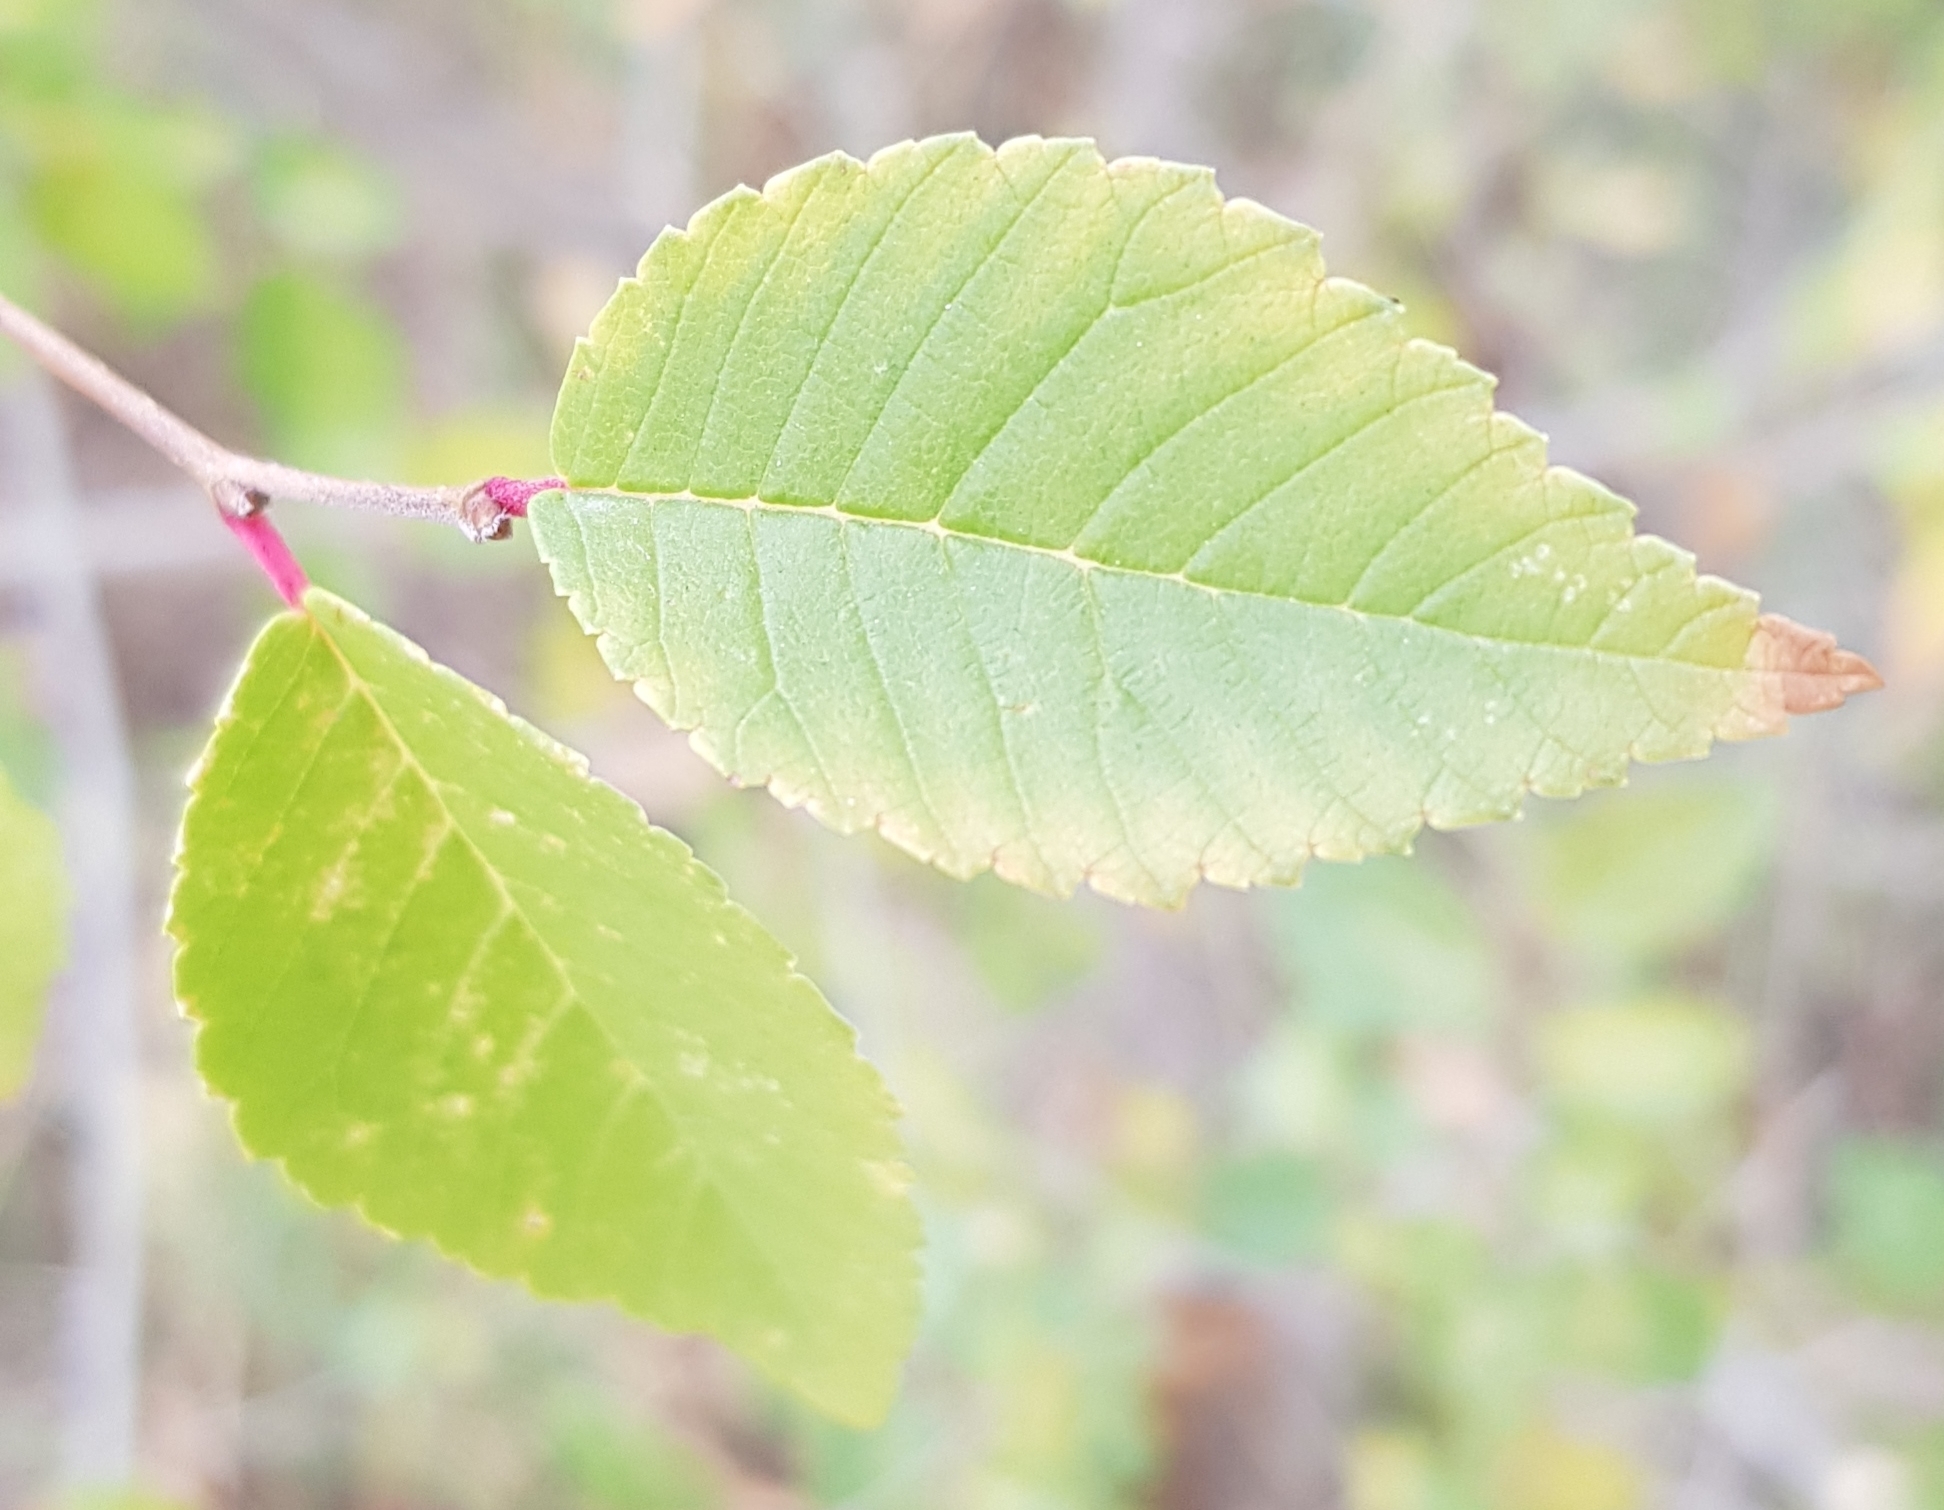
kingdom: Plantae
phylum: Tracheophyta
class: Magnoliopsida
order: Rosales
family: Ulmaceae
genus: Ulmus
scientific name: Ulmus pumila
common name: Siberian elm
